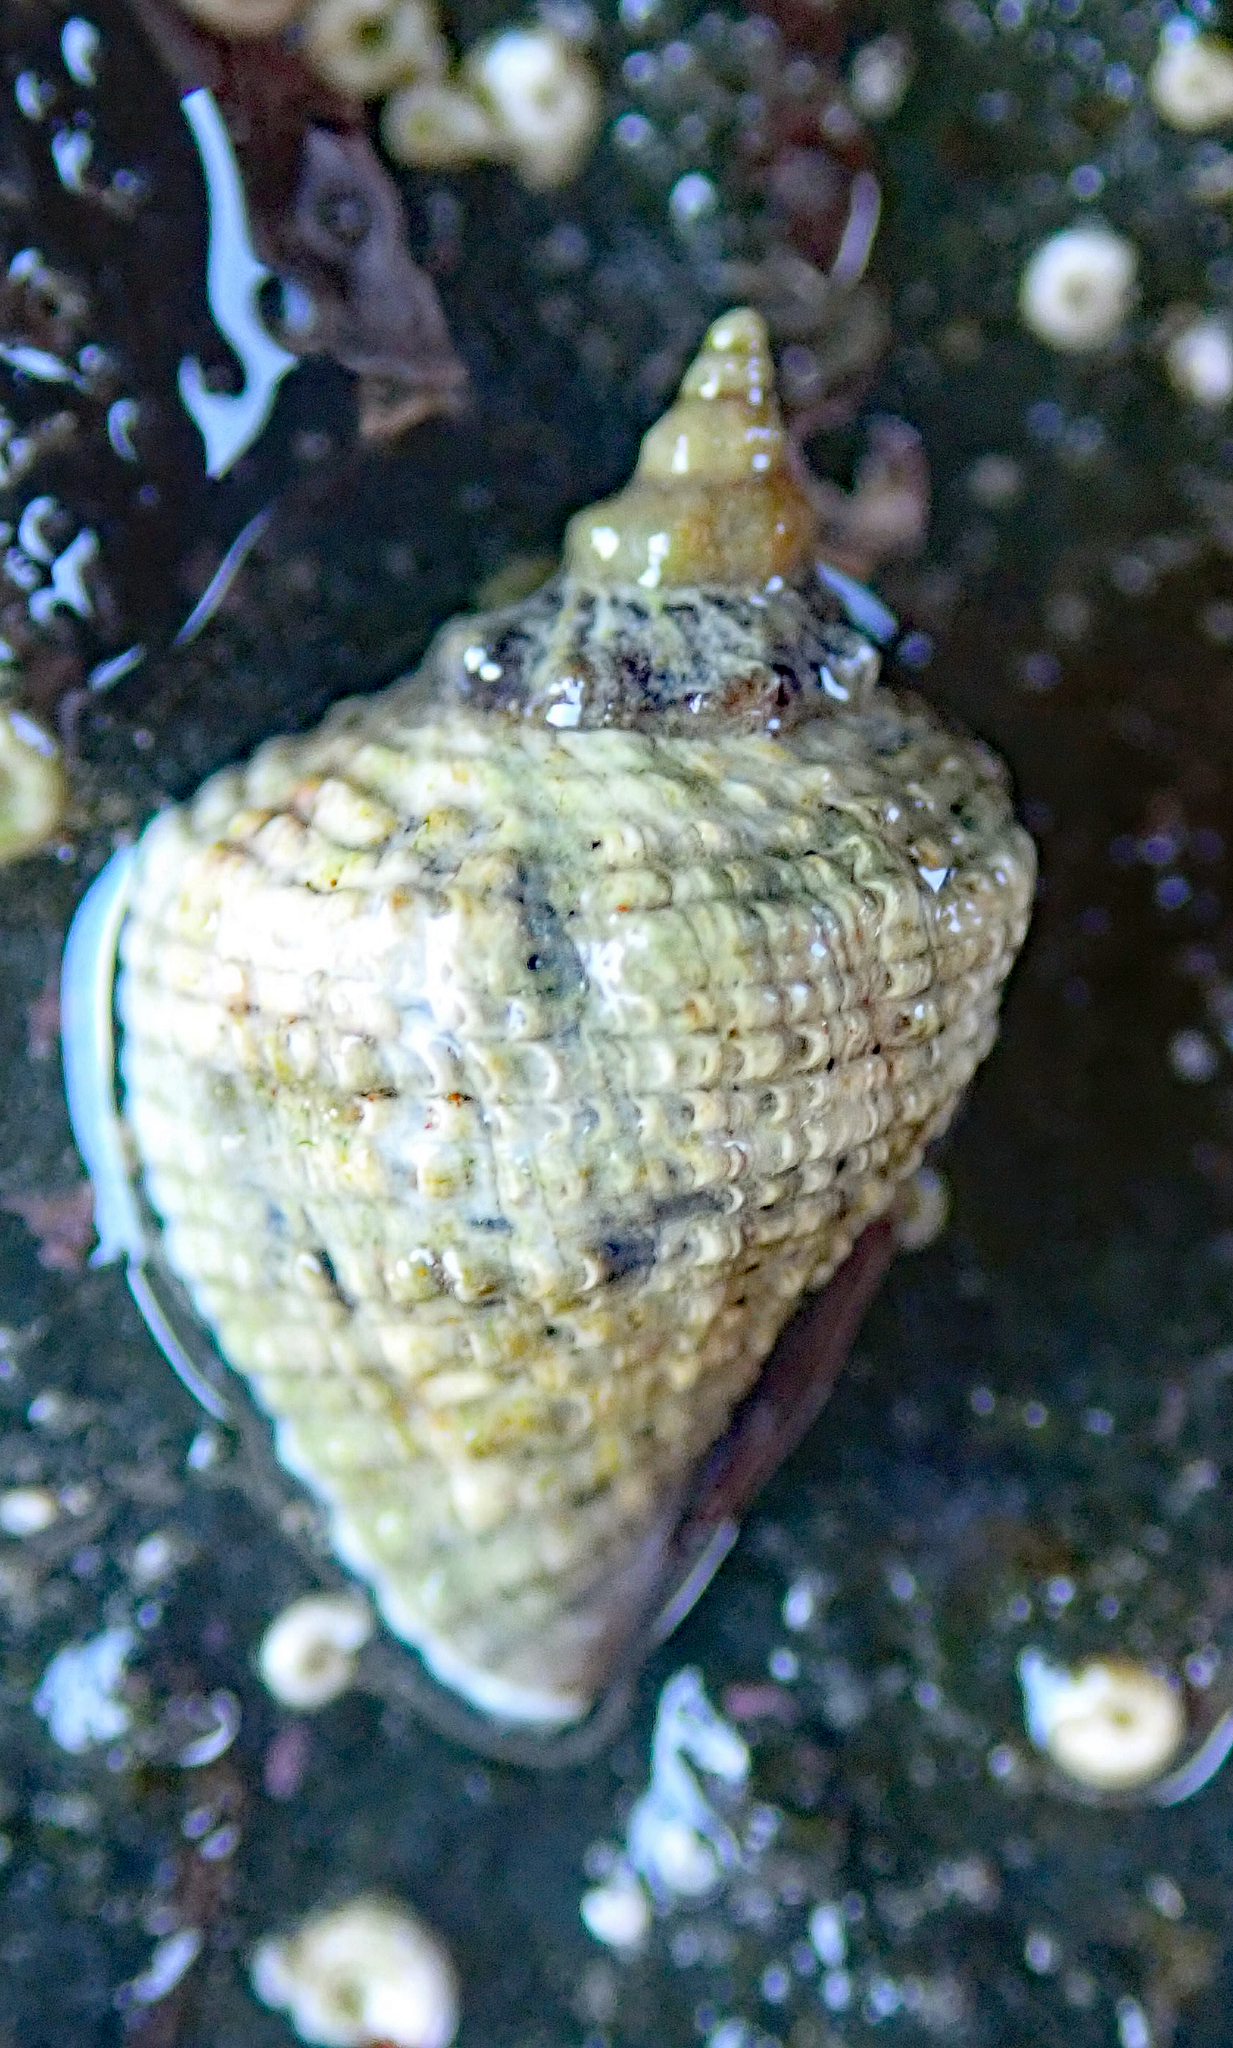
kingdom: Animalia
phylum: Mollusca
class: Gastropoda
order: Neogastropoda
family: Muricidae
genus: Haustrum
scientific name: Haustrum haustorium
